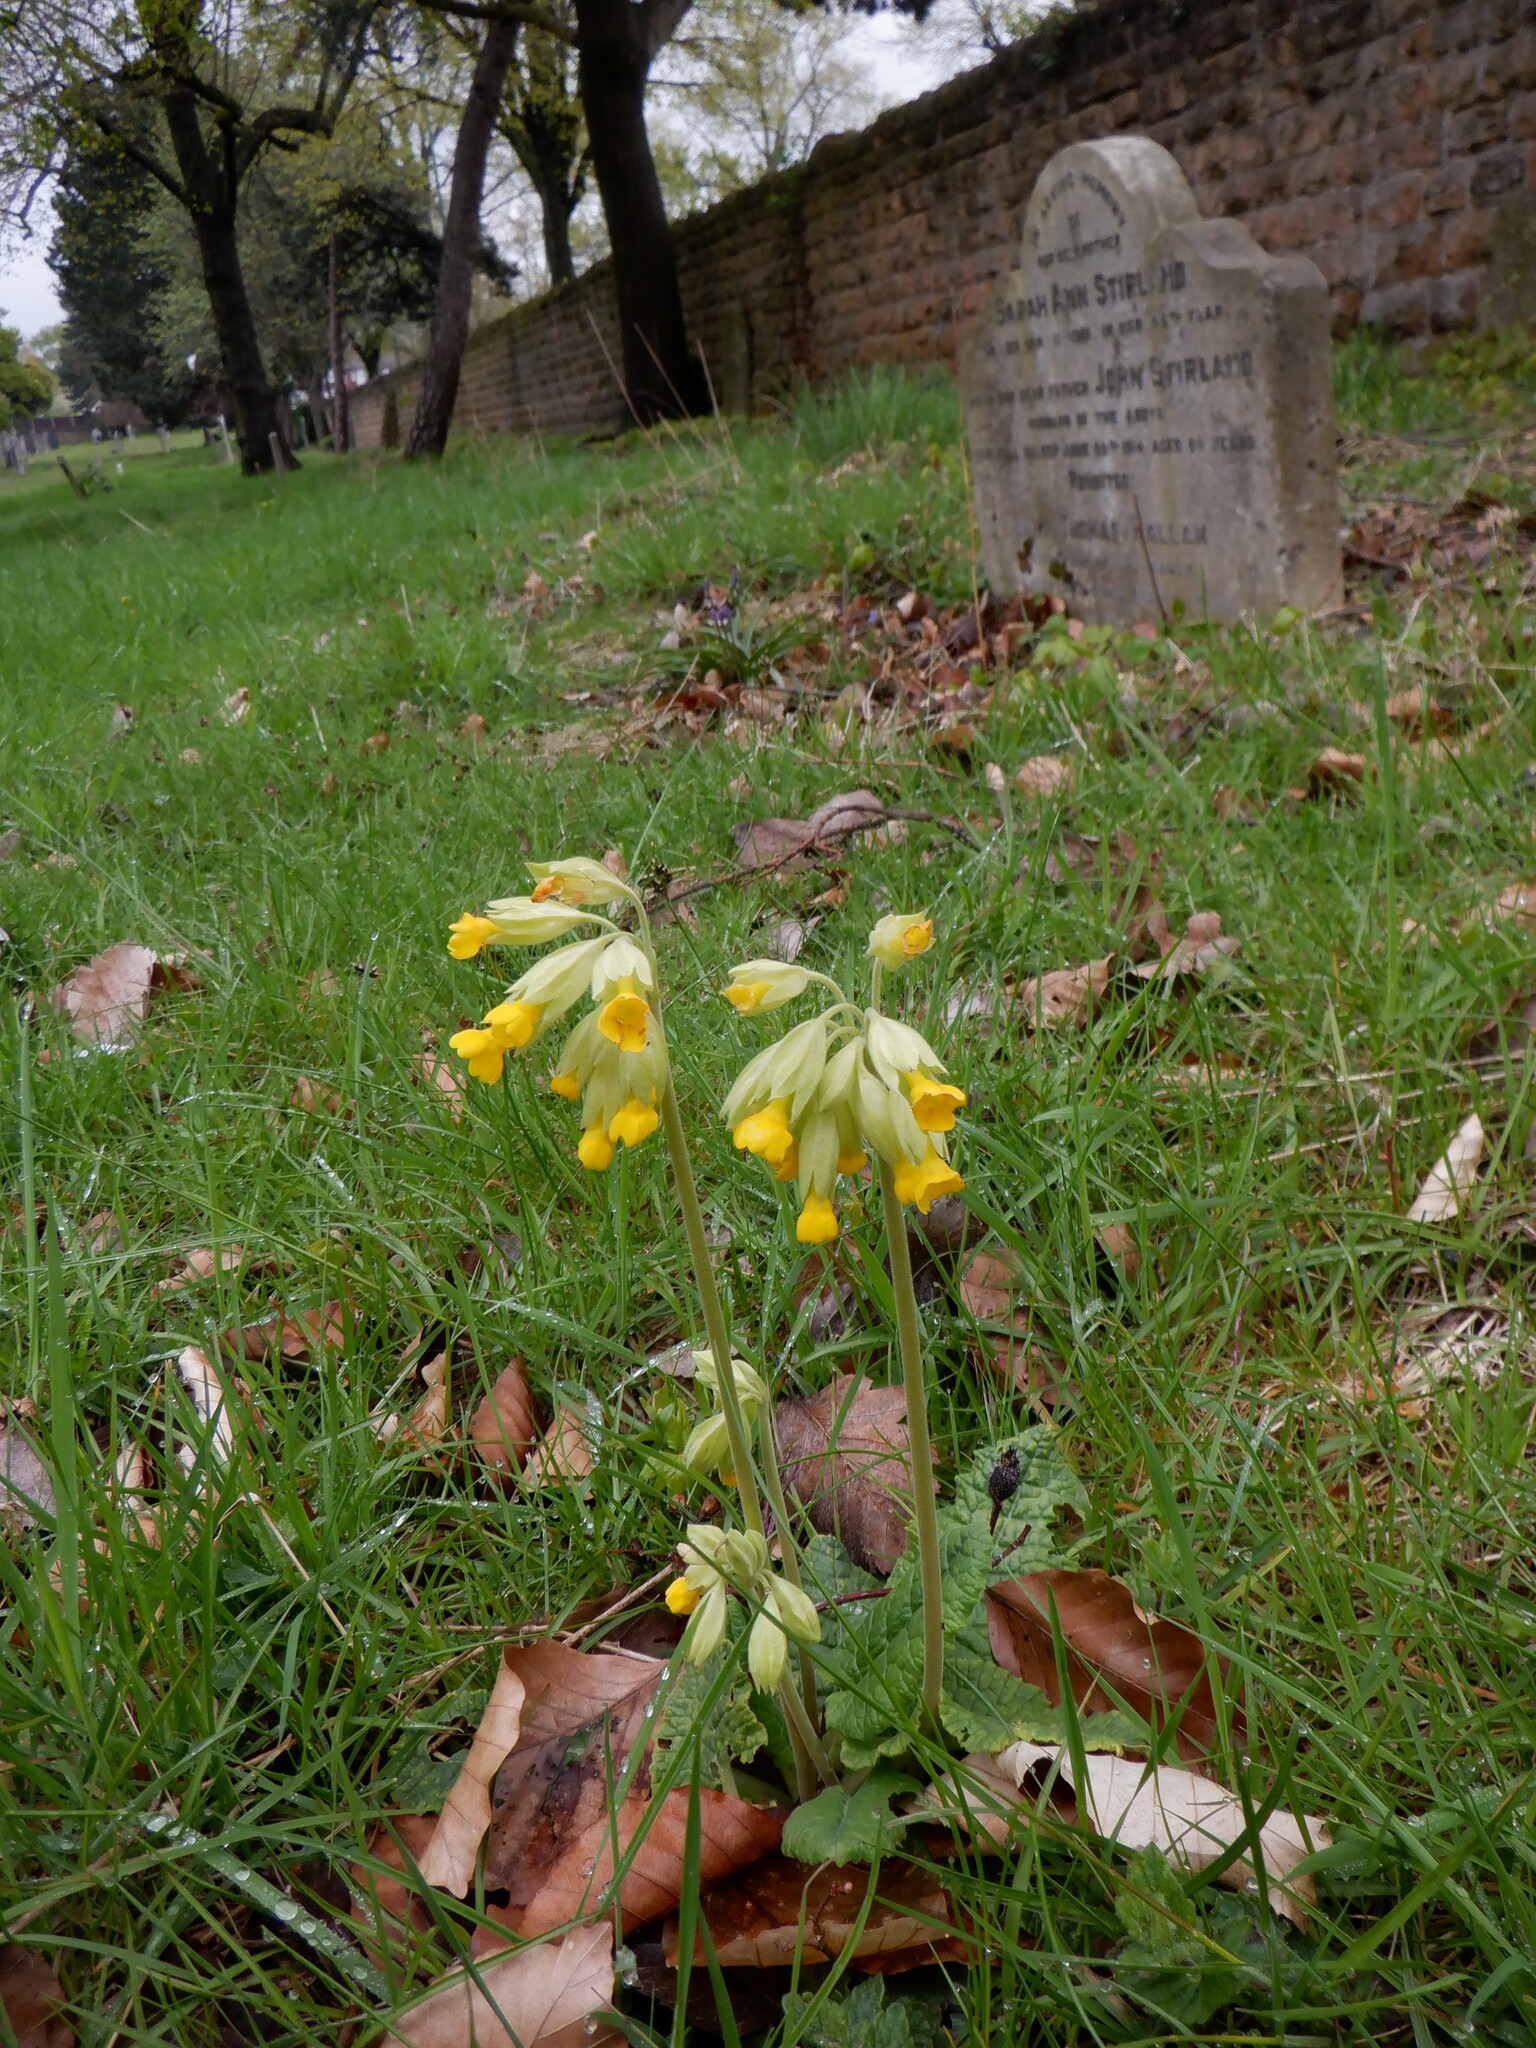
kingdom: Plantae
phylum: Tracheophyta
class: Magnoliopsida
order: Ericales
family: Primulaceae
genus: Primula
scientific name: Primula veris
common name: Cowslip
